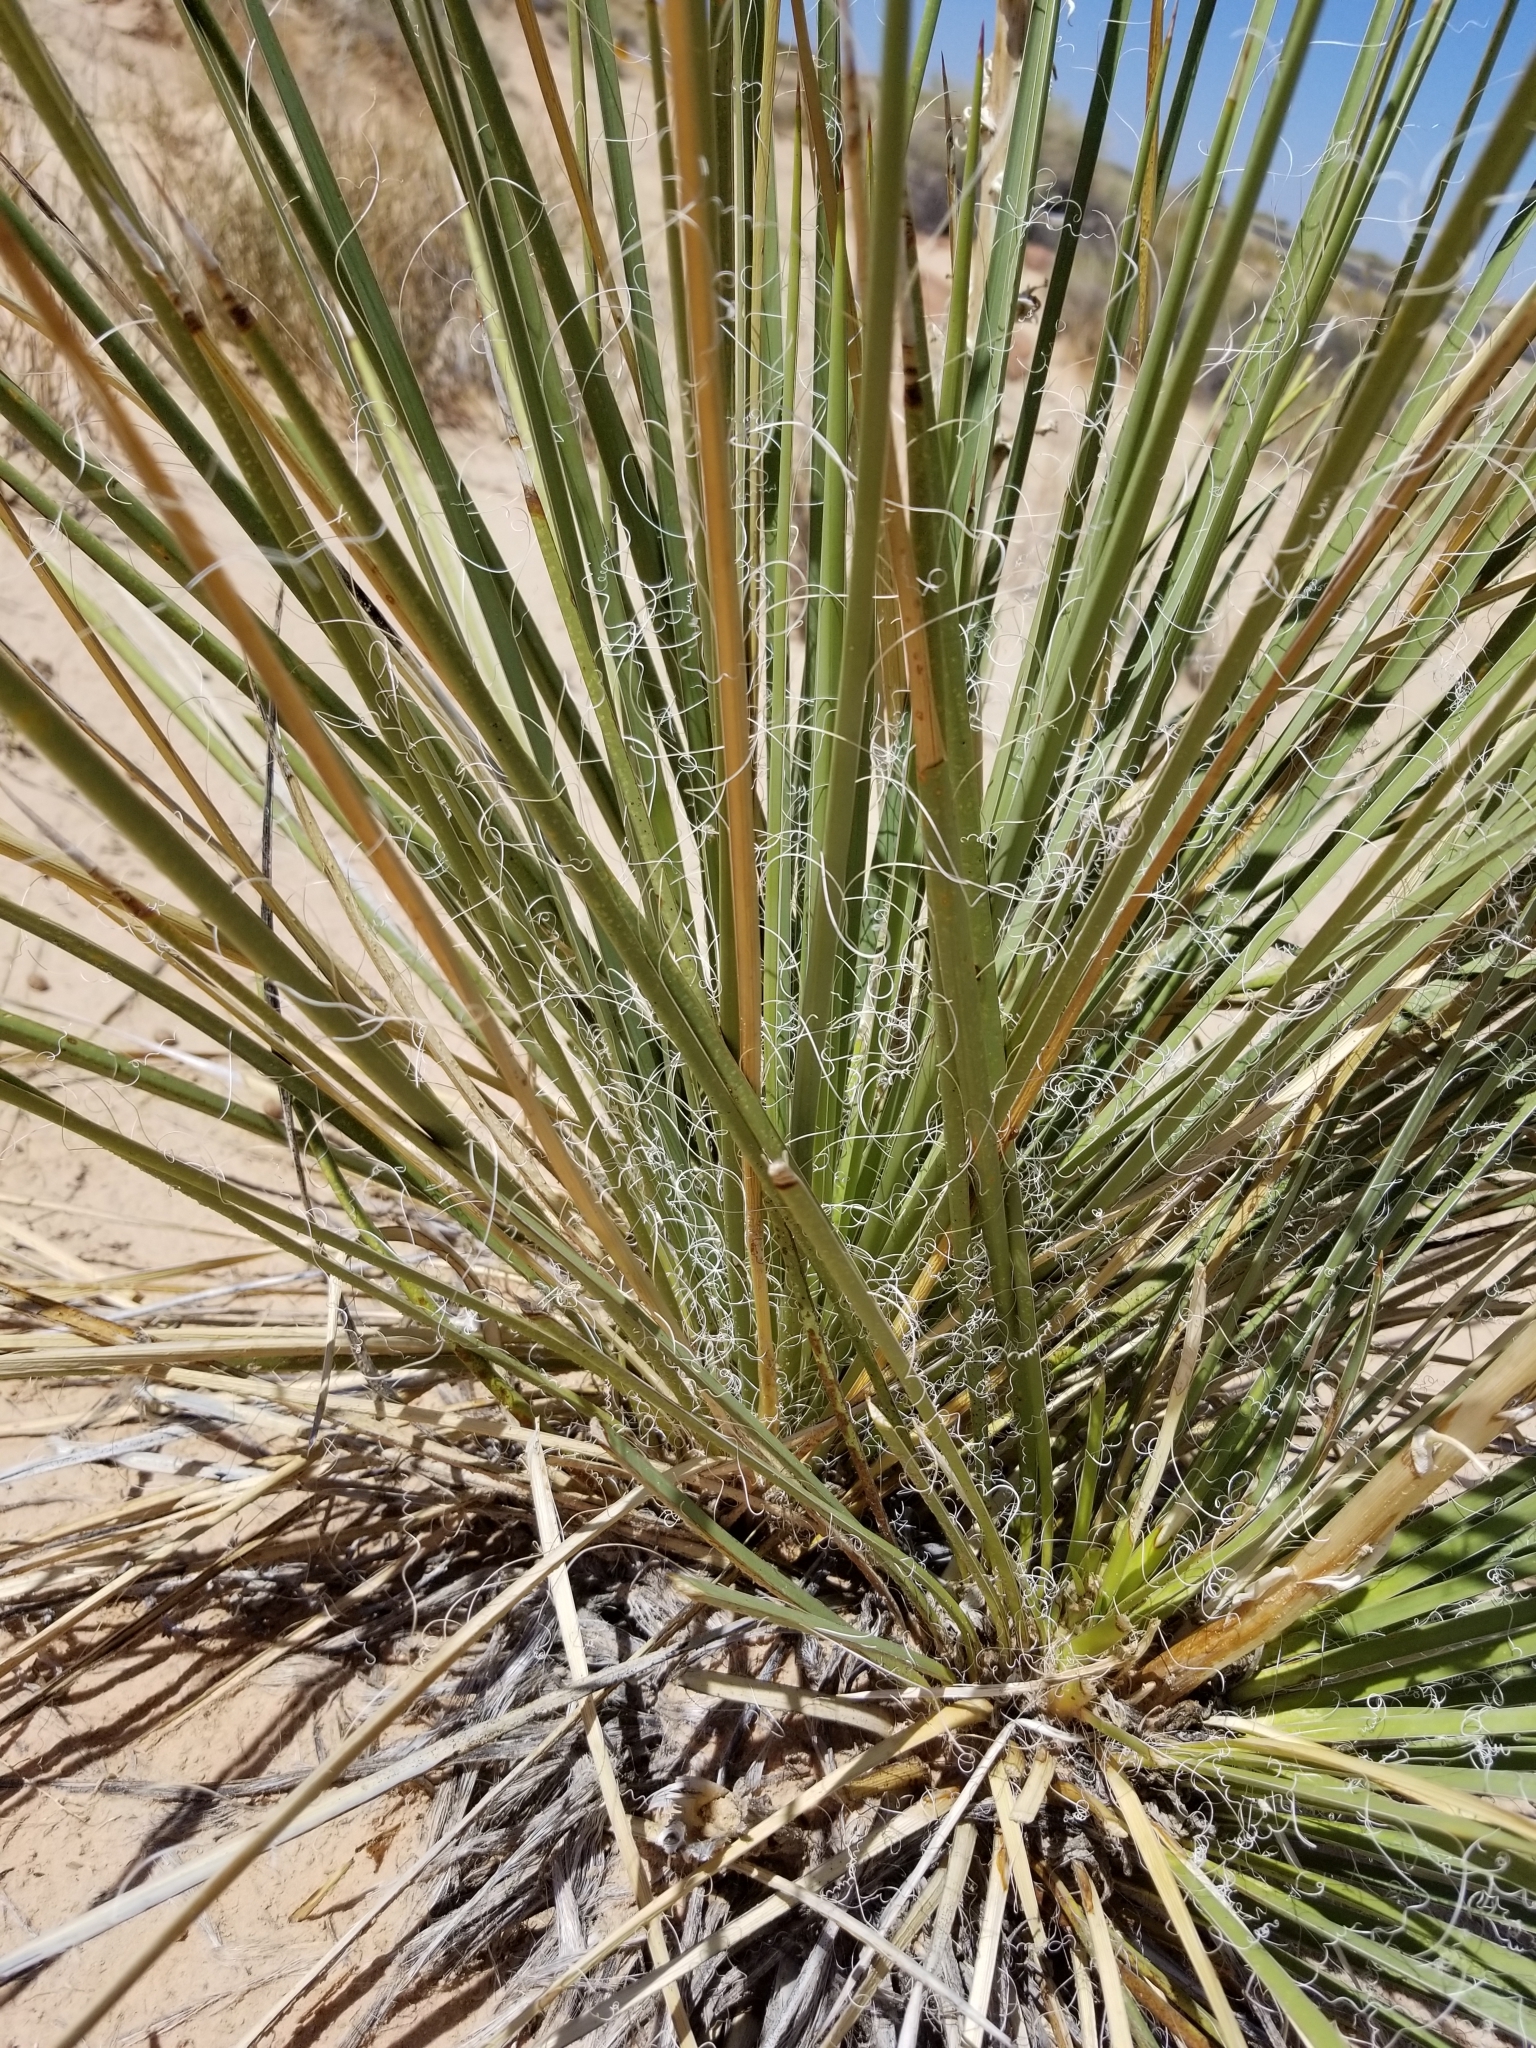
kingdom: Plantae
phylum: Tracheophyta
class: Liliopsida
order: Asparagales
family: Asparagaceae
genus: Yucca
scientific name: Yucca angustissima
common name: Narrowleaf yucca
